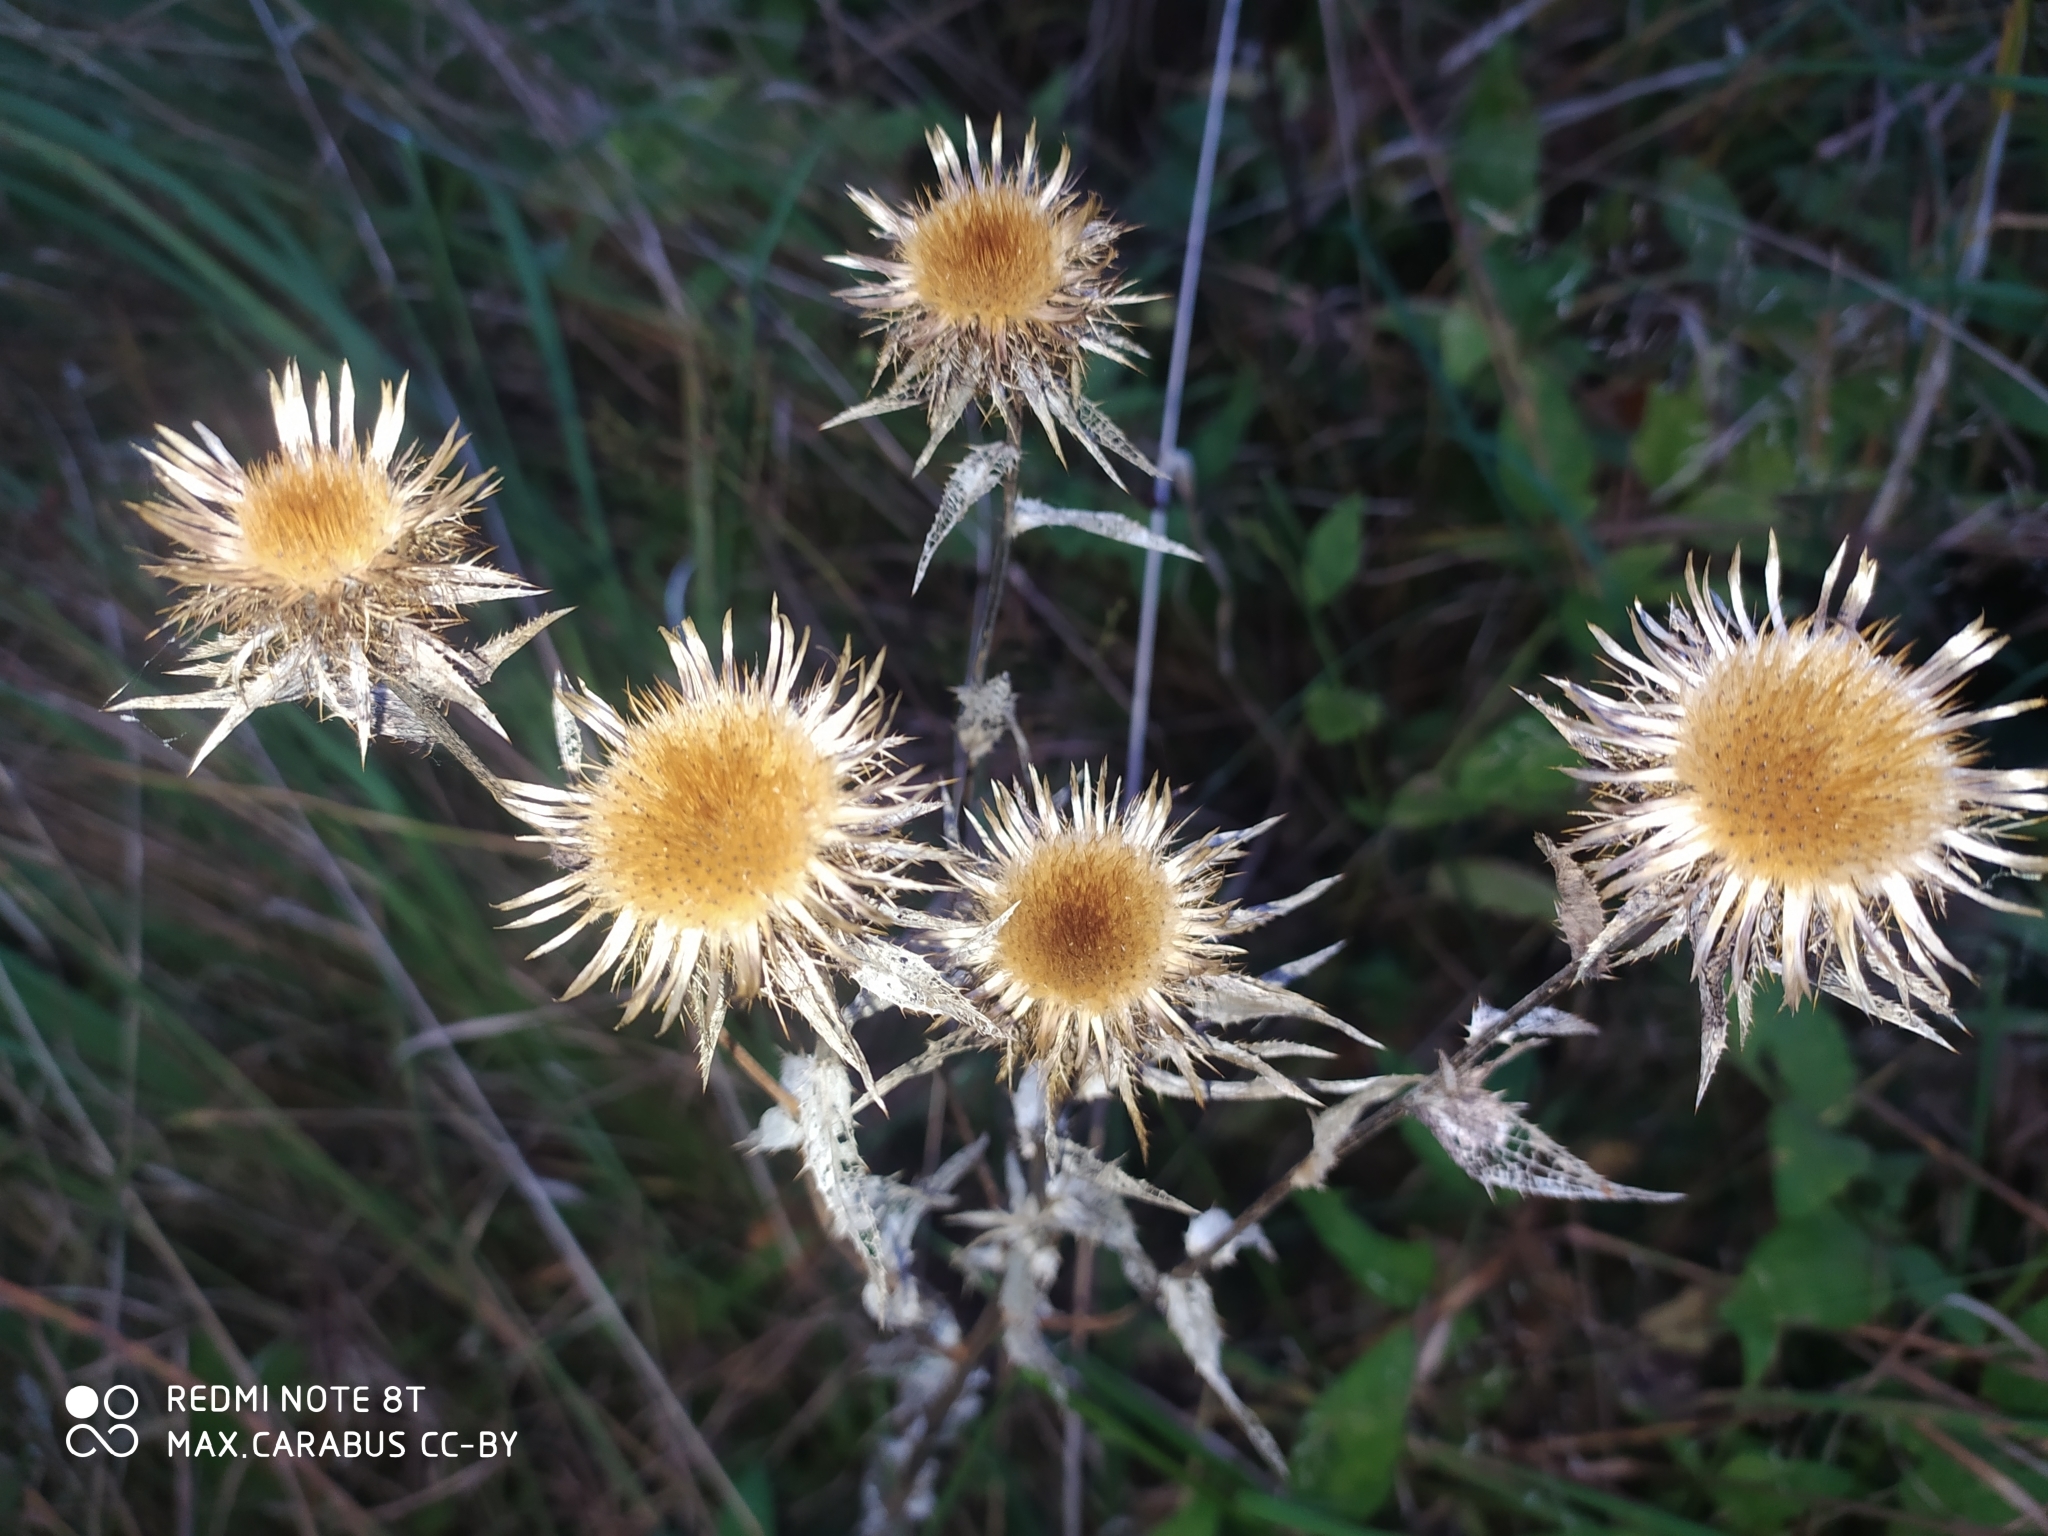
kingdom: Plantae
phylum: Tracheophyta
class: Magnoliopsida
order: Asterales
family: Asteraceae
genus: Carlina
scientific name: Carlina biebersteinii
